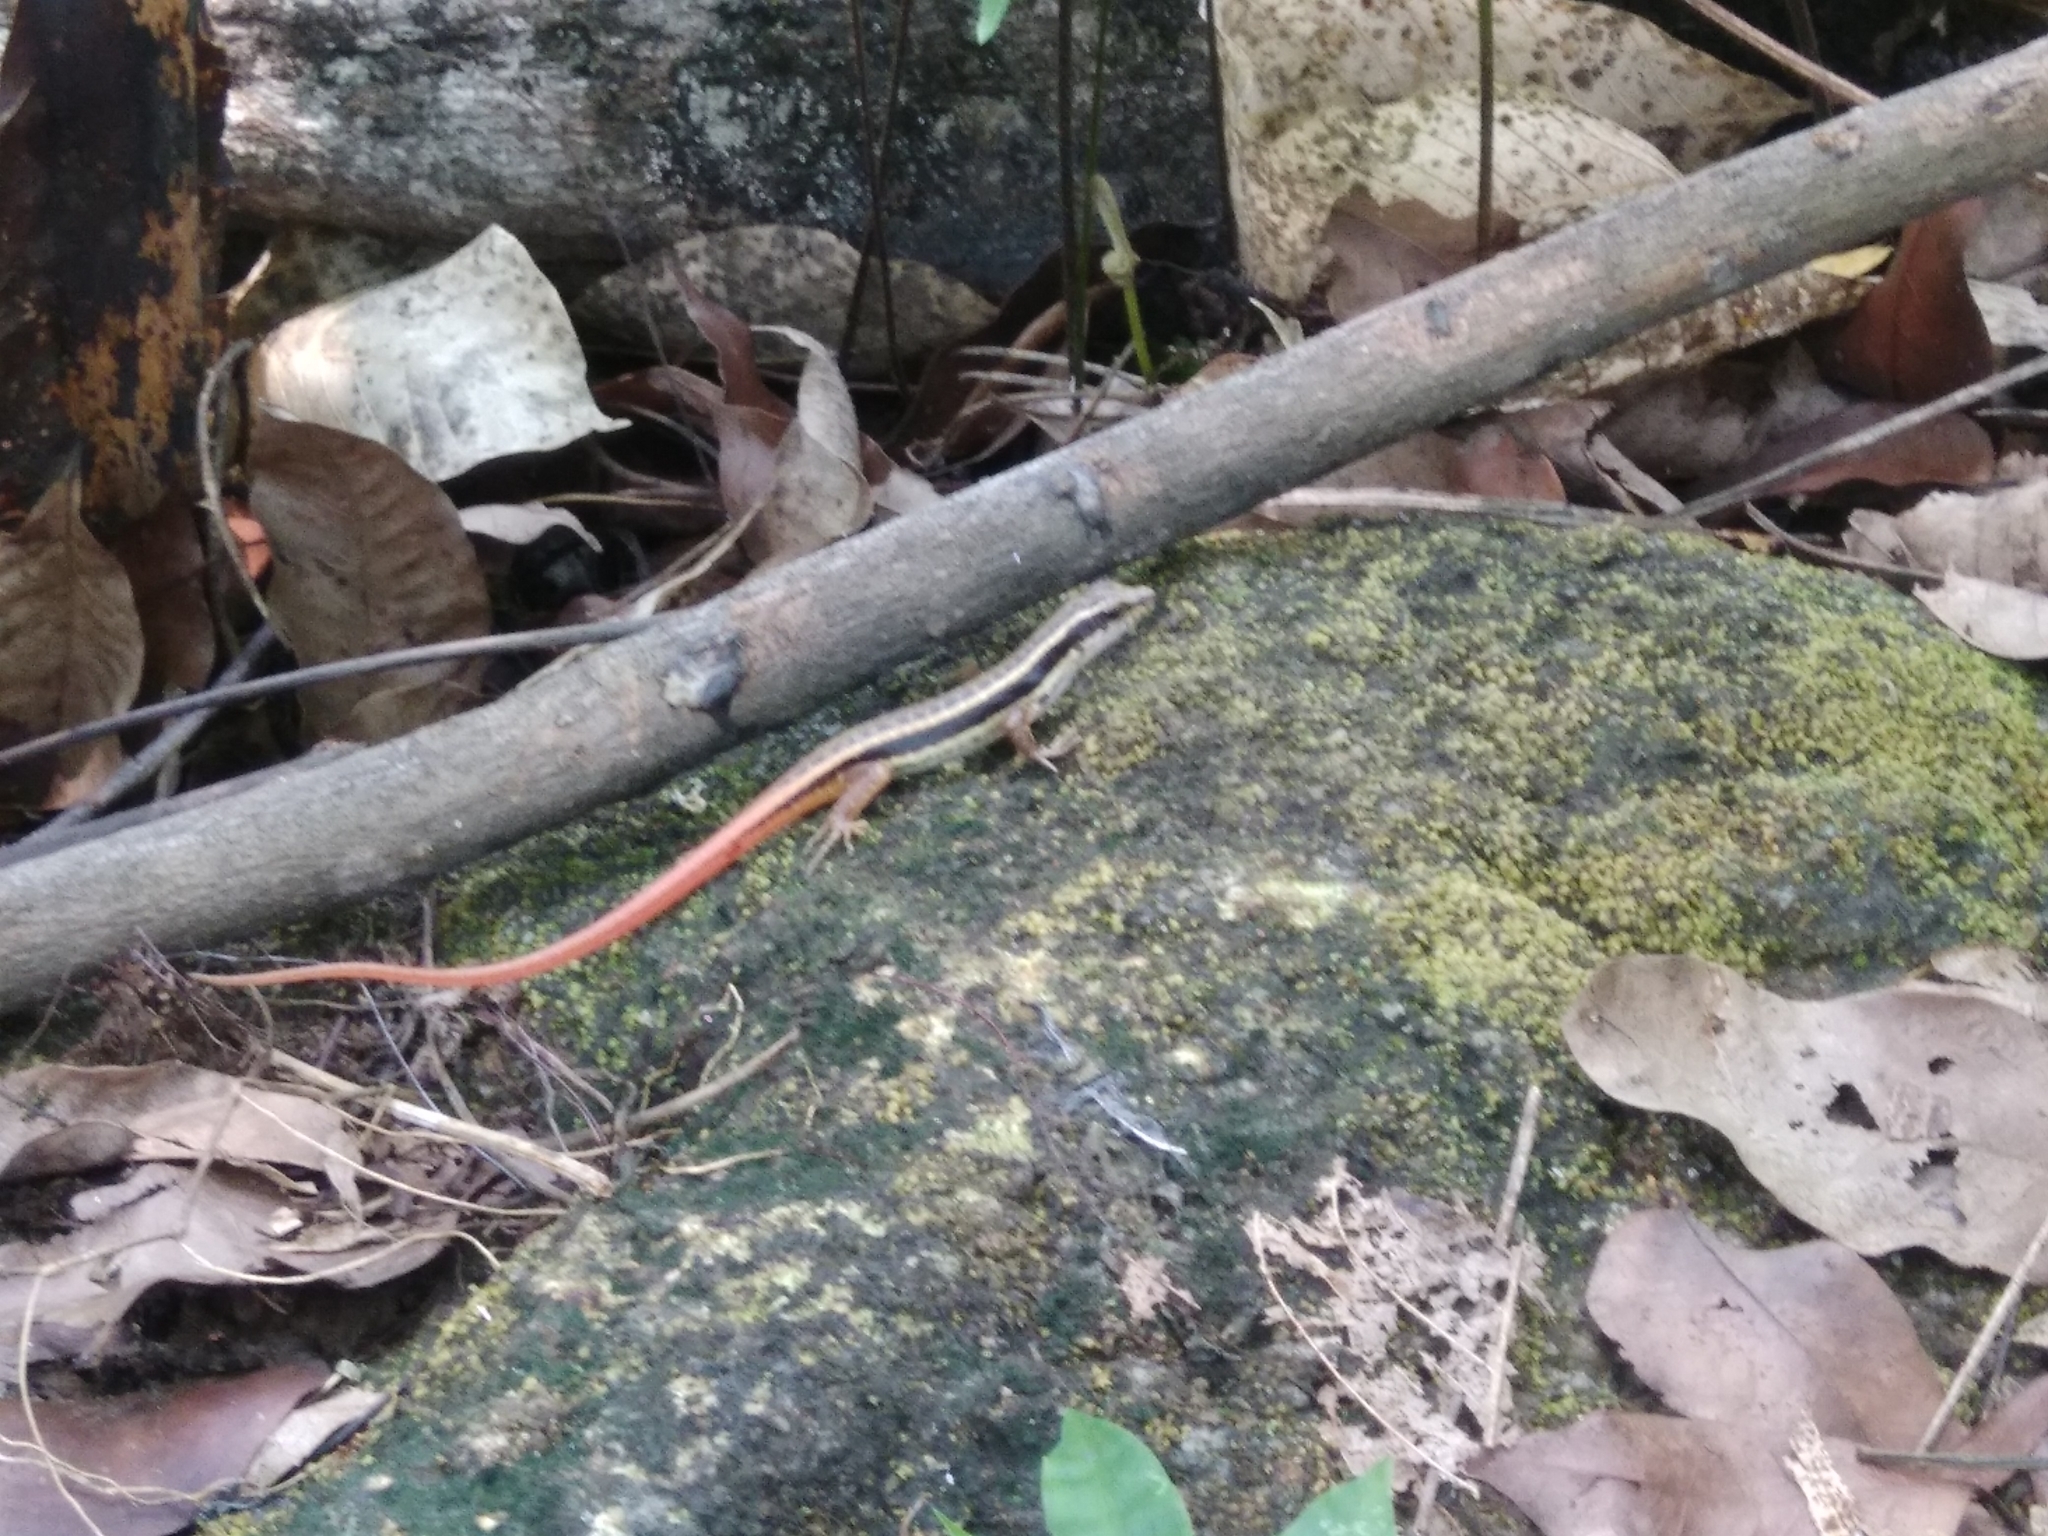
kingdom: Animalia
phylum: Chordata
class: Squamata
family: Scincidae
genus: Sphenomorphus
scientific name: Sphenomorphus dussumieri
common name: Dussumier's forest skink
